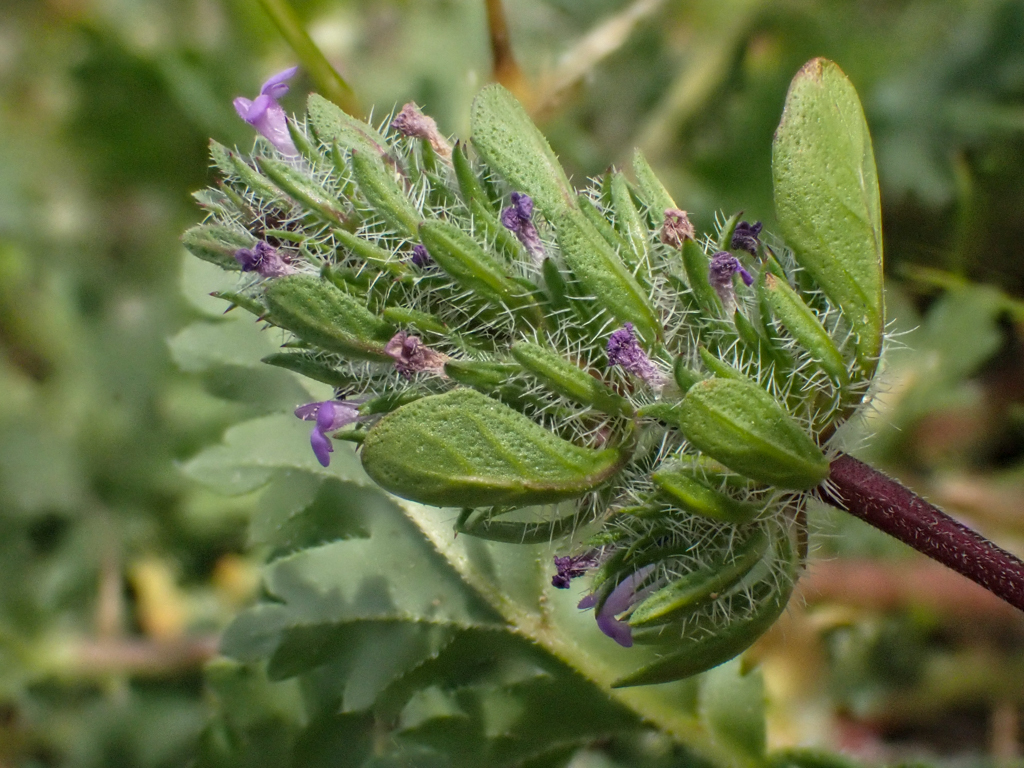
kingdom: Plantae
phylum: Tracheophyta
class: Magnoliopsida
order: Lamiales
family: Lamiaceae
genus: Pogogyne
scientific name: Pogogyne zizyphoroides
